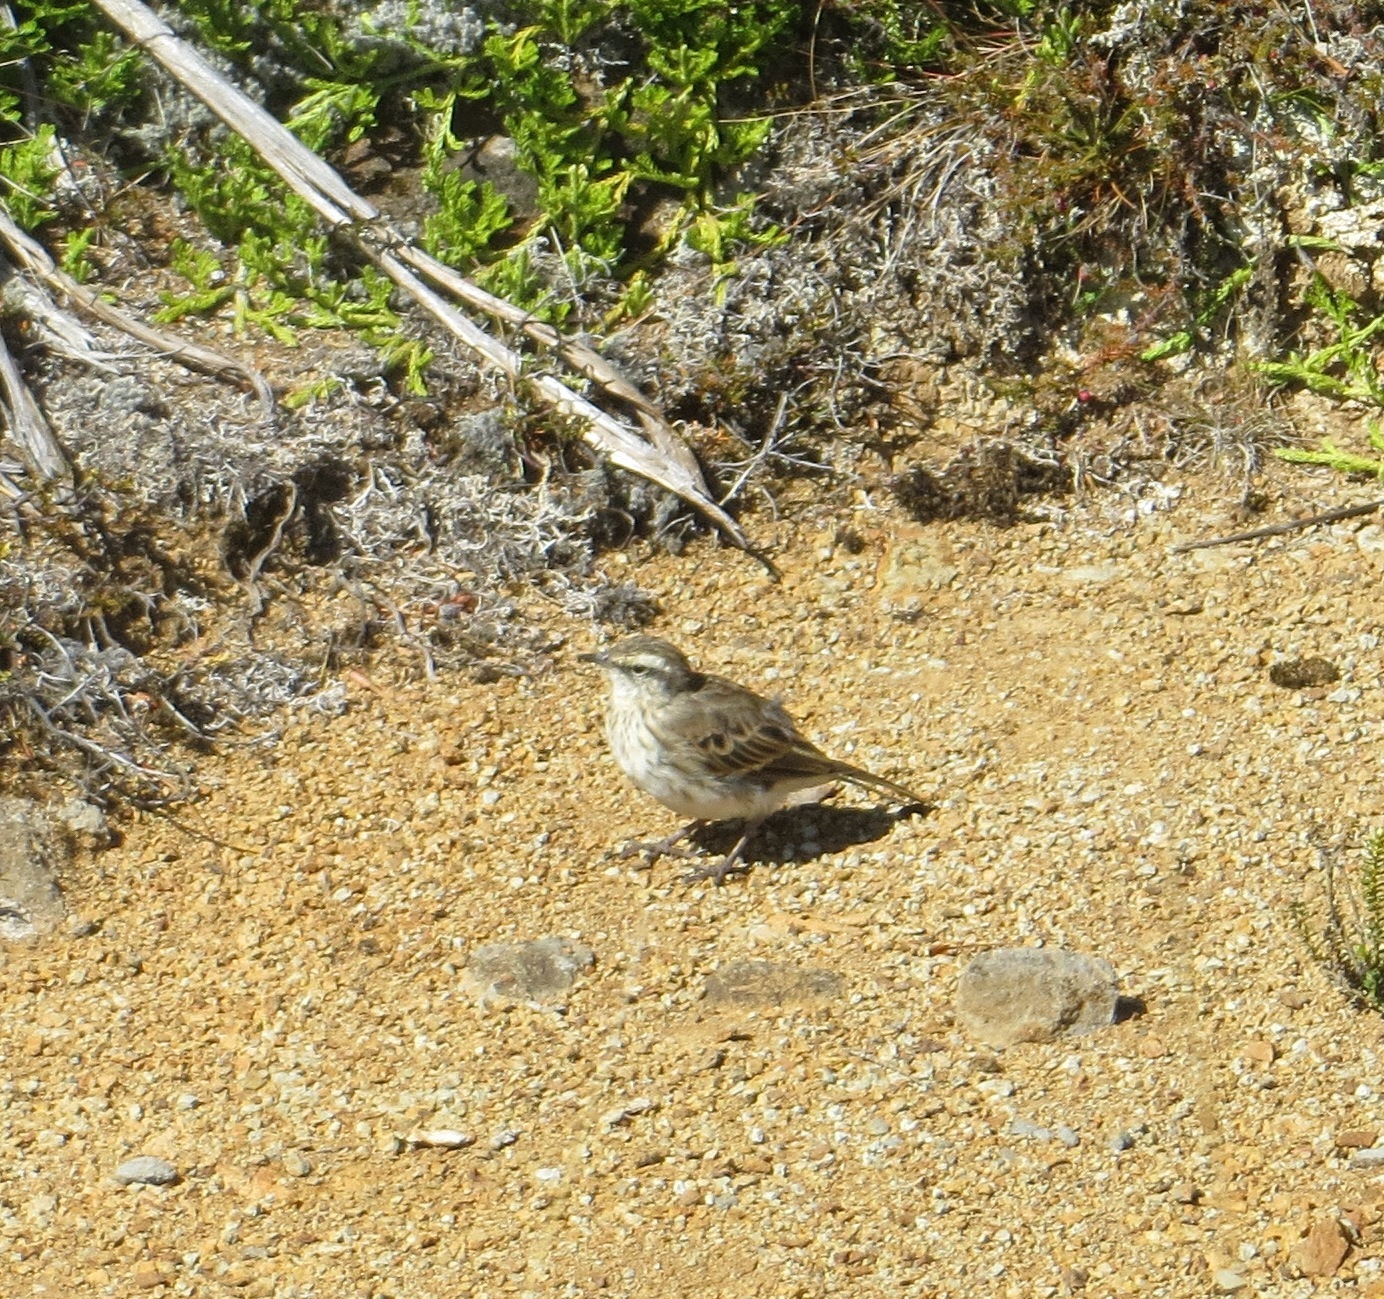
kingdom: Animalia
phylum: Chordata
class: Aves
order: Passeriformes
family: Motacillidae
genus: Anthus
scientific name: Anthus novaeseelandiae
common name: New zealand pipit
